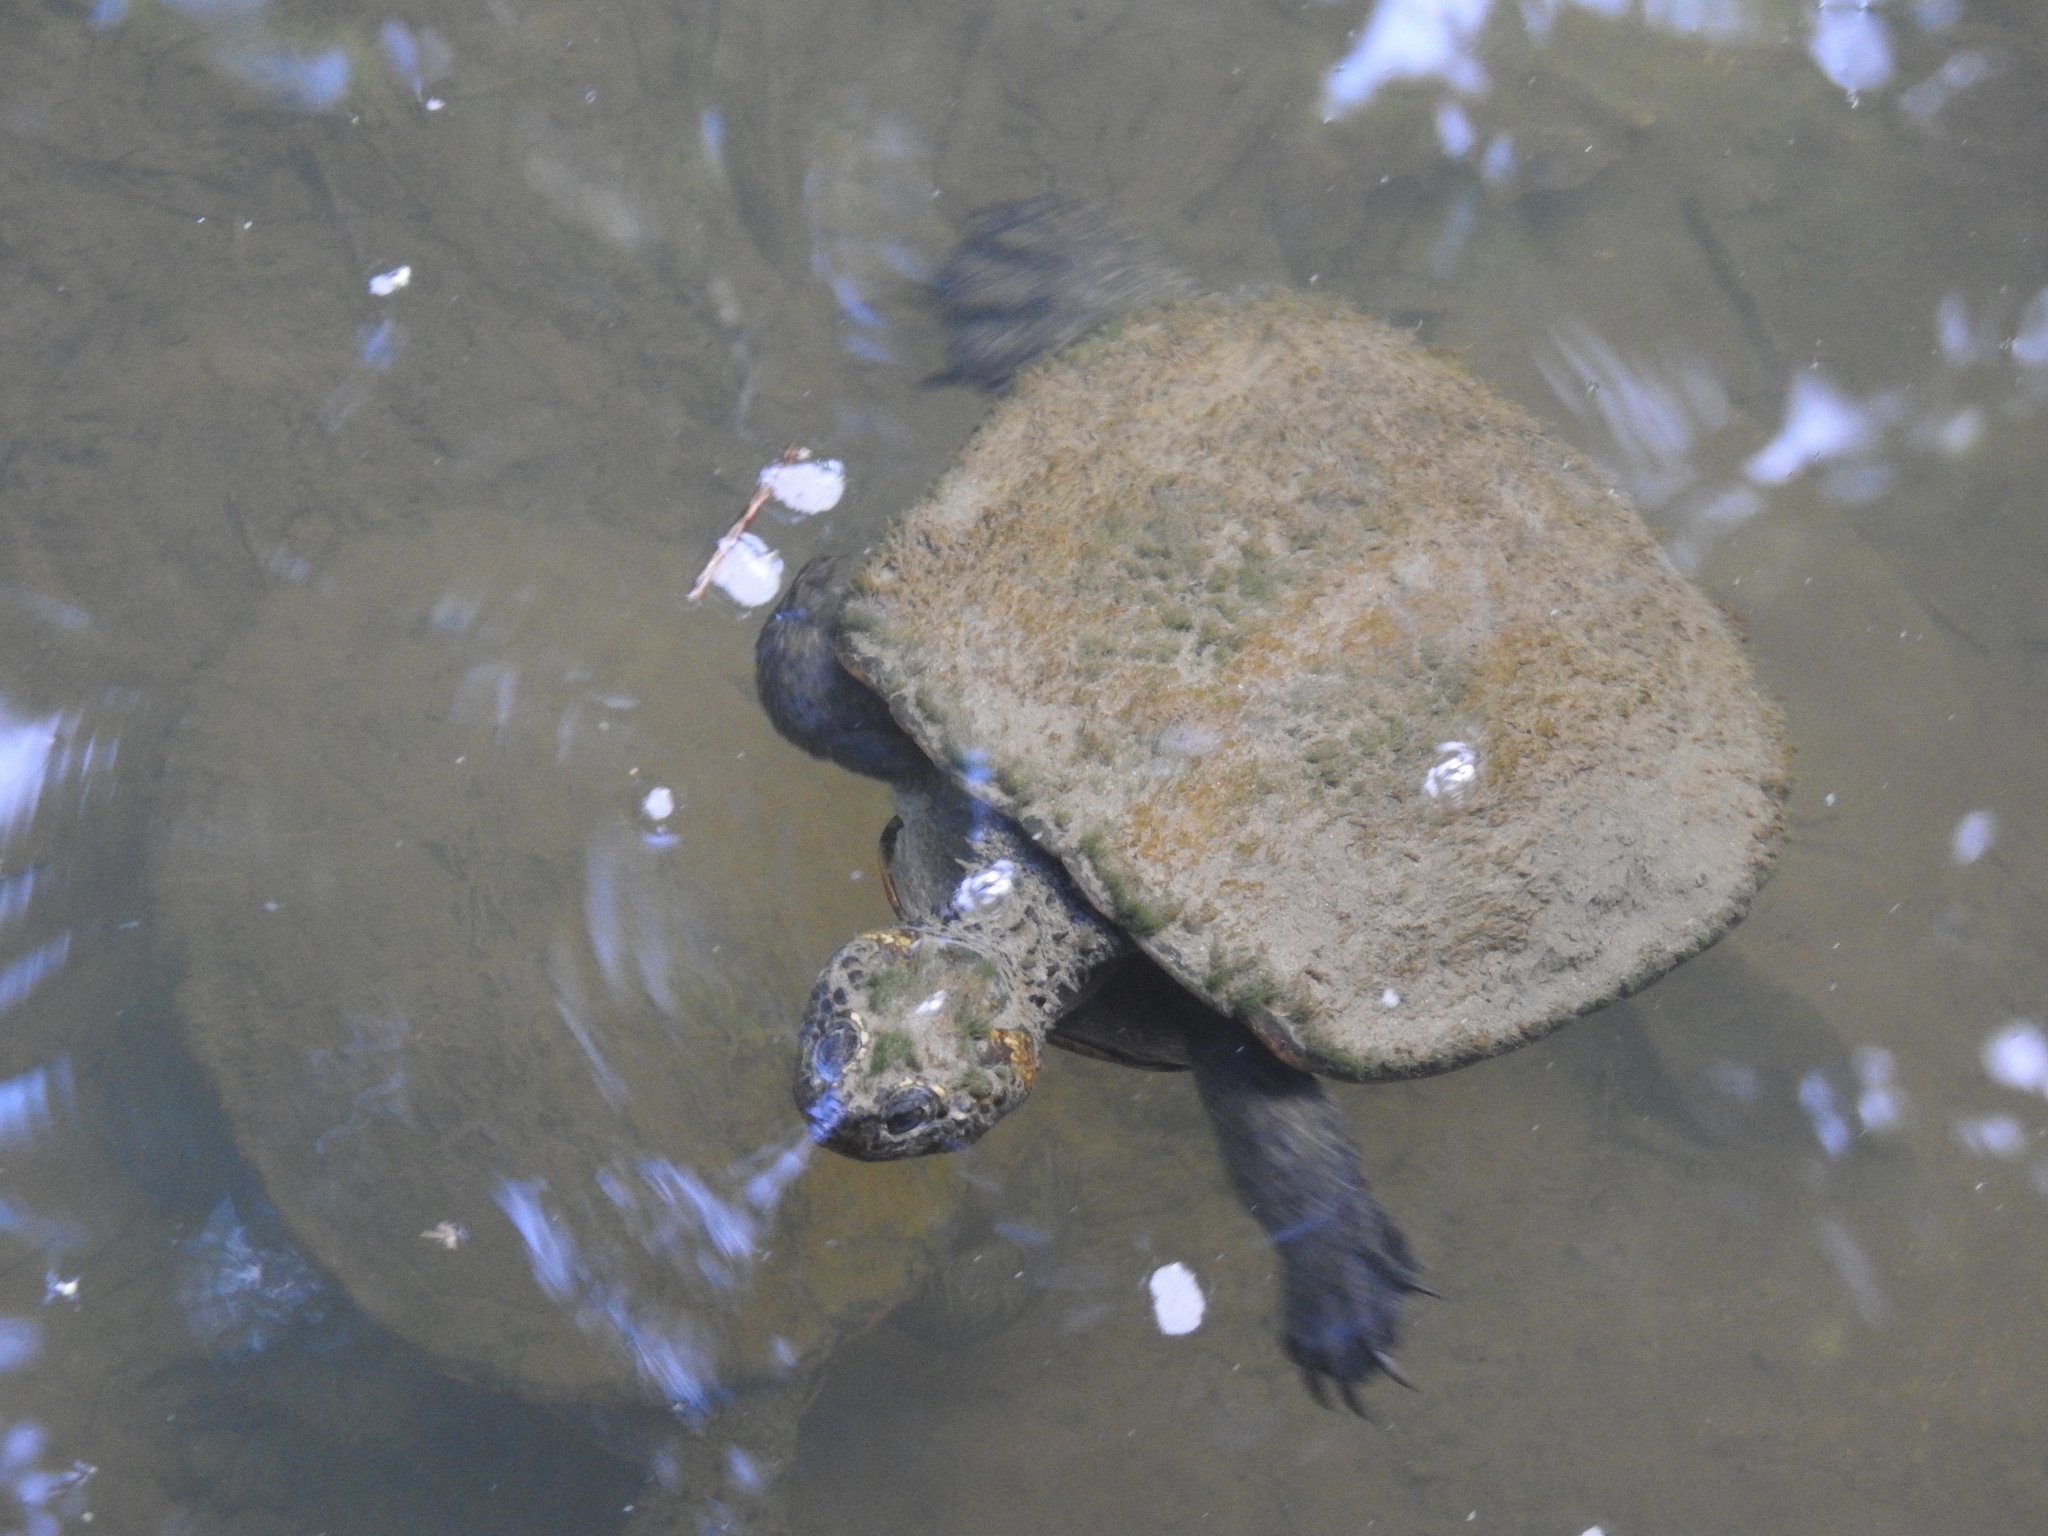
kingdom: Animalia
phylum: Chordata
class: Testudines
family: Chelidae
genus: Myuchelys
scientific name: Myuchelys latisternum
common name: Serrated snapping turtle
